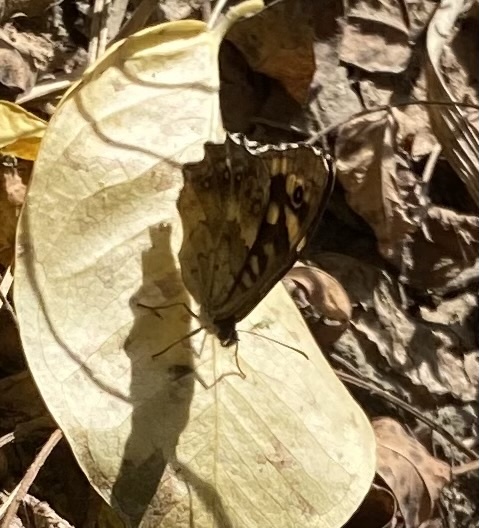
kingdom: Animalia
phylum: Arthropoda
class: Insecta
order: Lepidoptera
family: Nymphalidae
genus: Pararge
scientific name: Pararge aegeria
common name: Speckled wood
